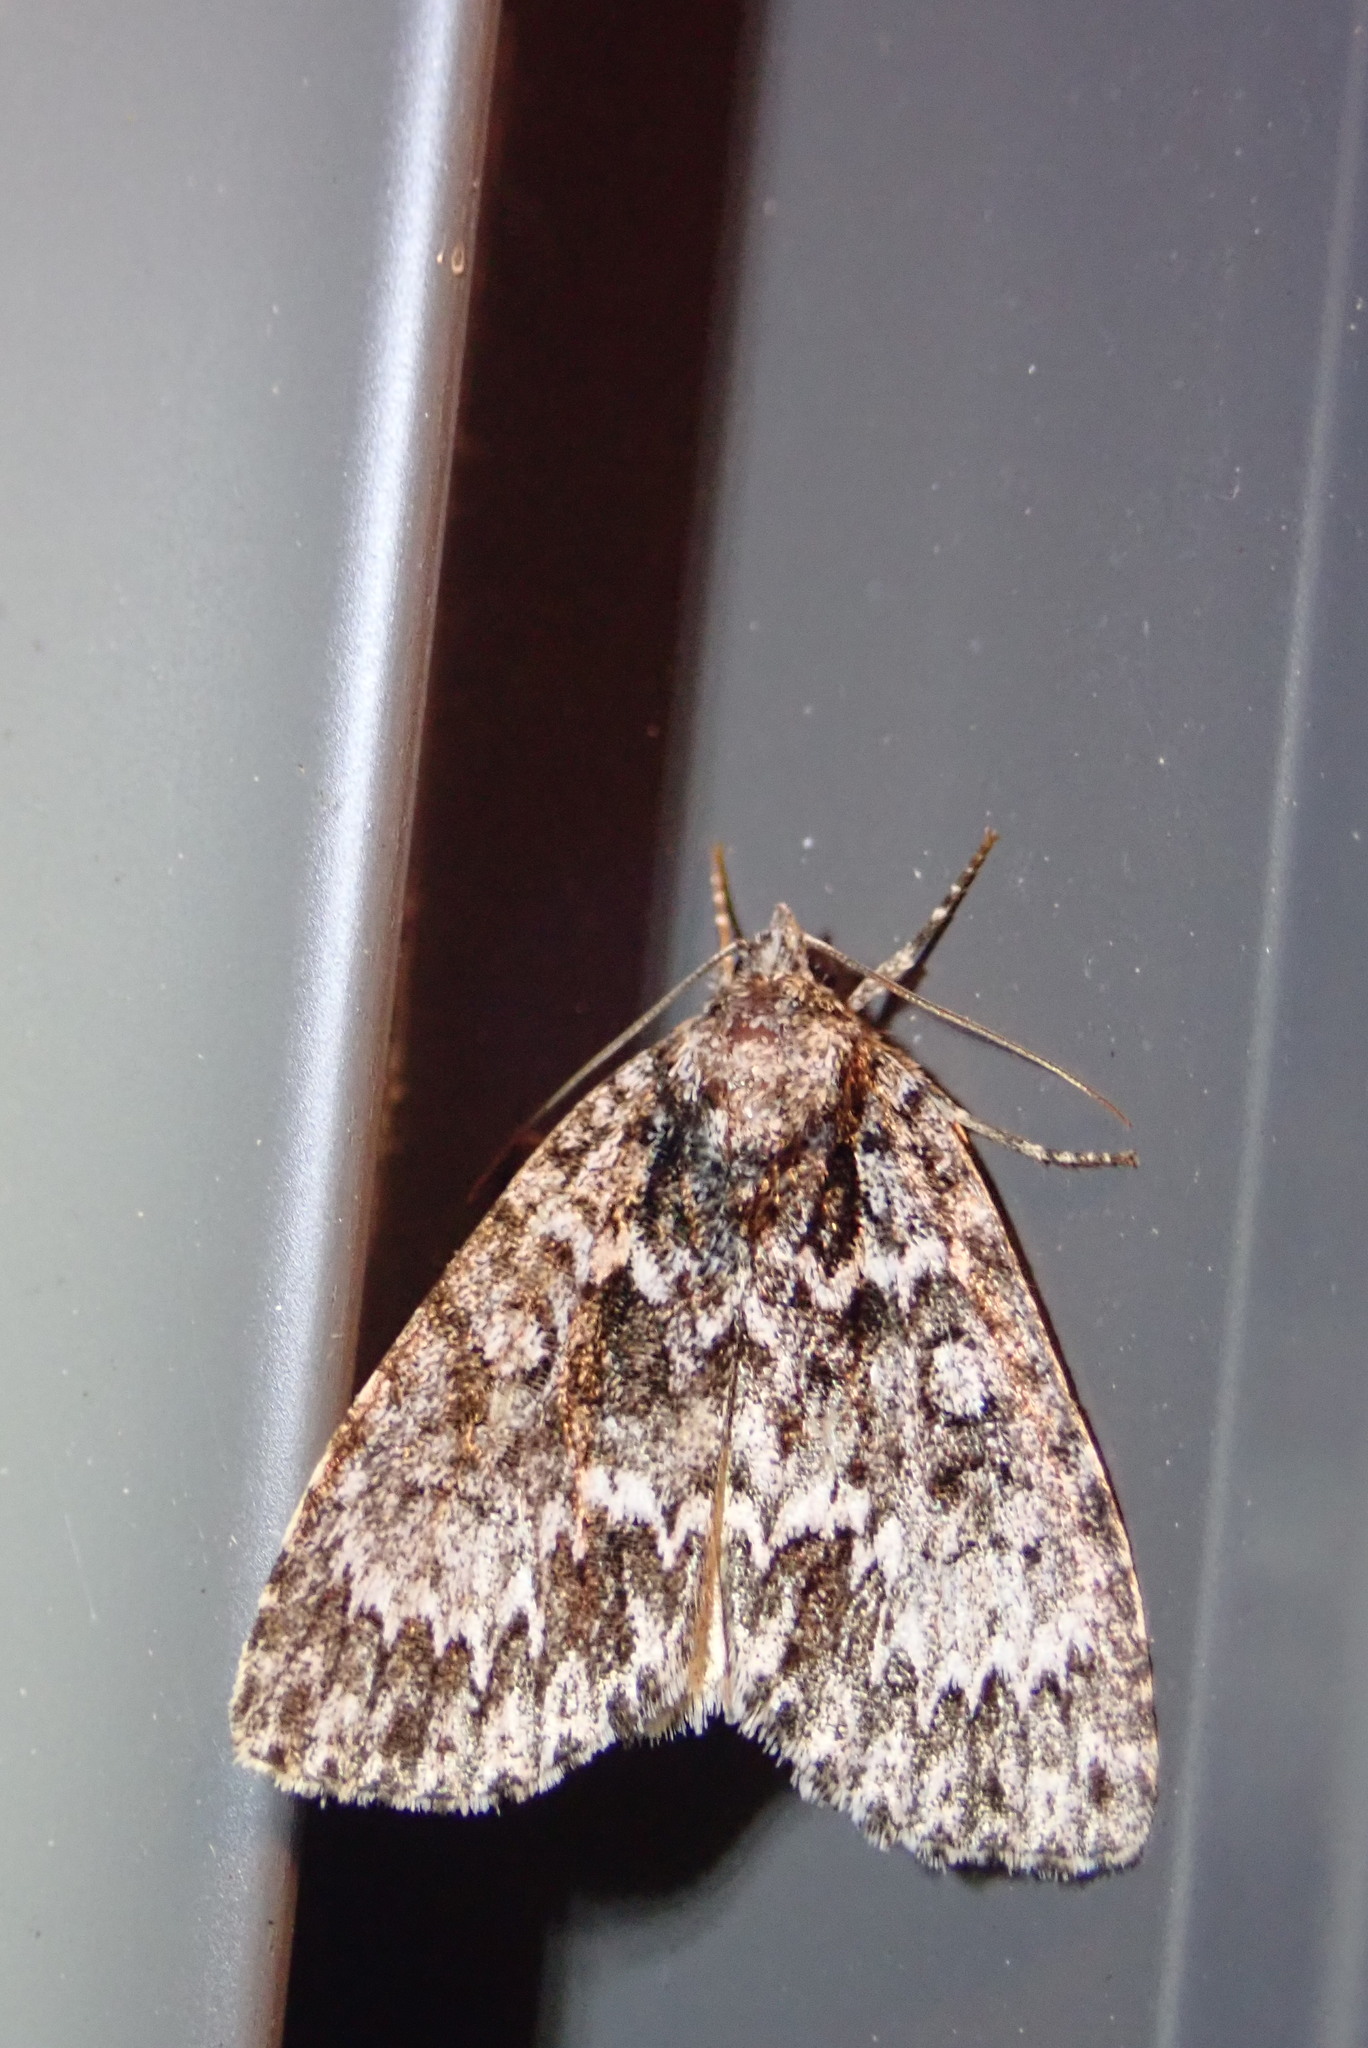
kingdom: Animalia
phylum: Arthropoda
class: Insecta
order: Lepidoptera
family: Noctuidae
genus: Acronicta
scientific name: Acronicta fragilis
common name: Fragile dagger
